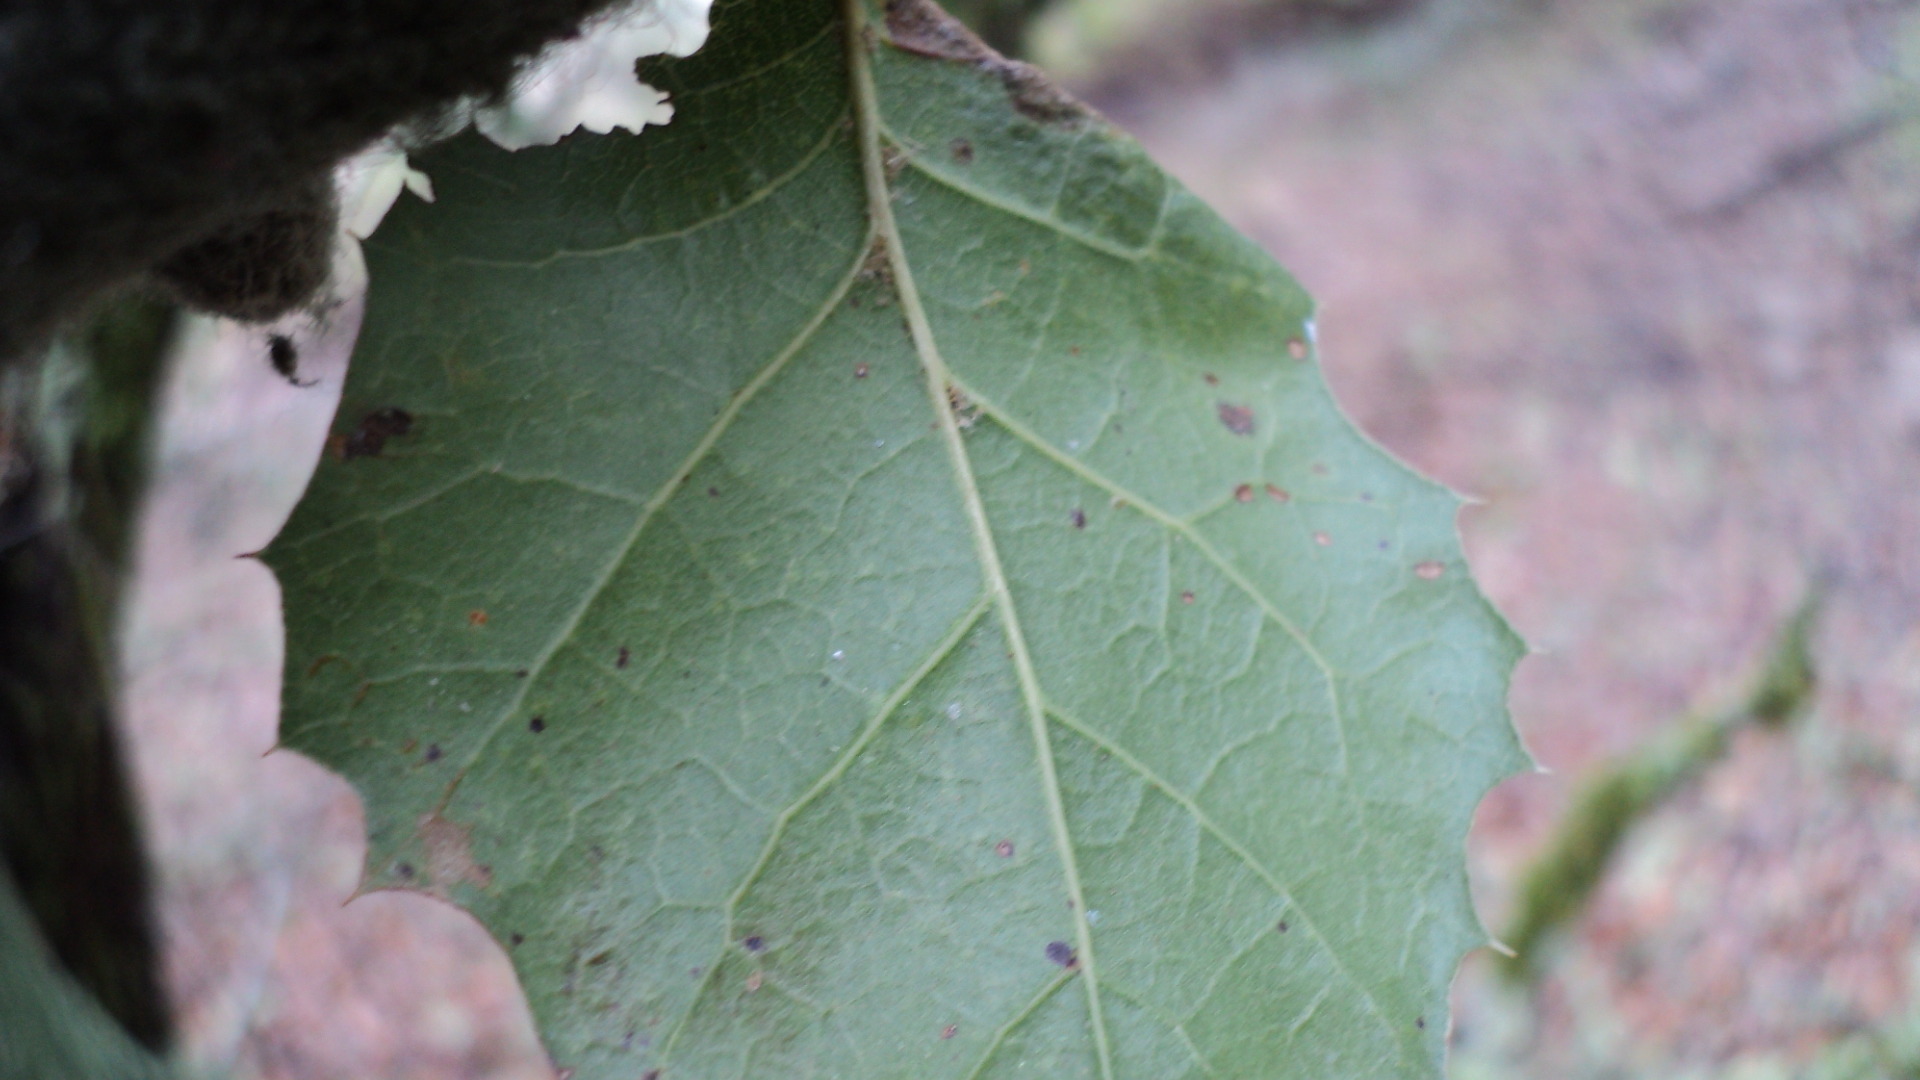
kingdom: Plantae
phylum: Tracheophyta
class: Magnoliopsida
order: Fagales
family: Fagaceae
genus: Quercus
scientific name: Quercus agrifolia
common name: California live oak
